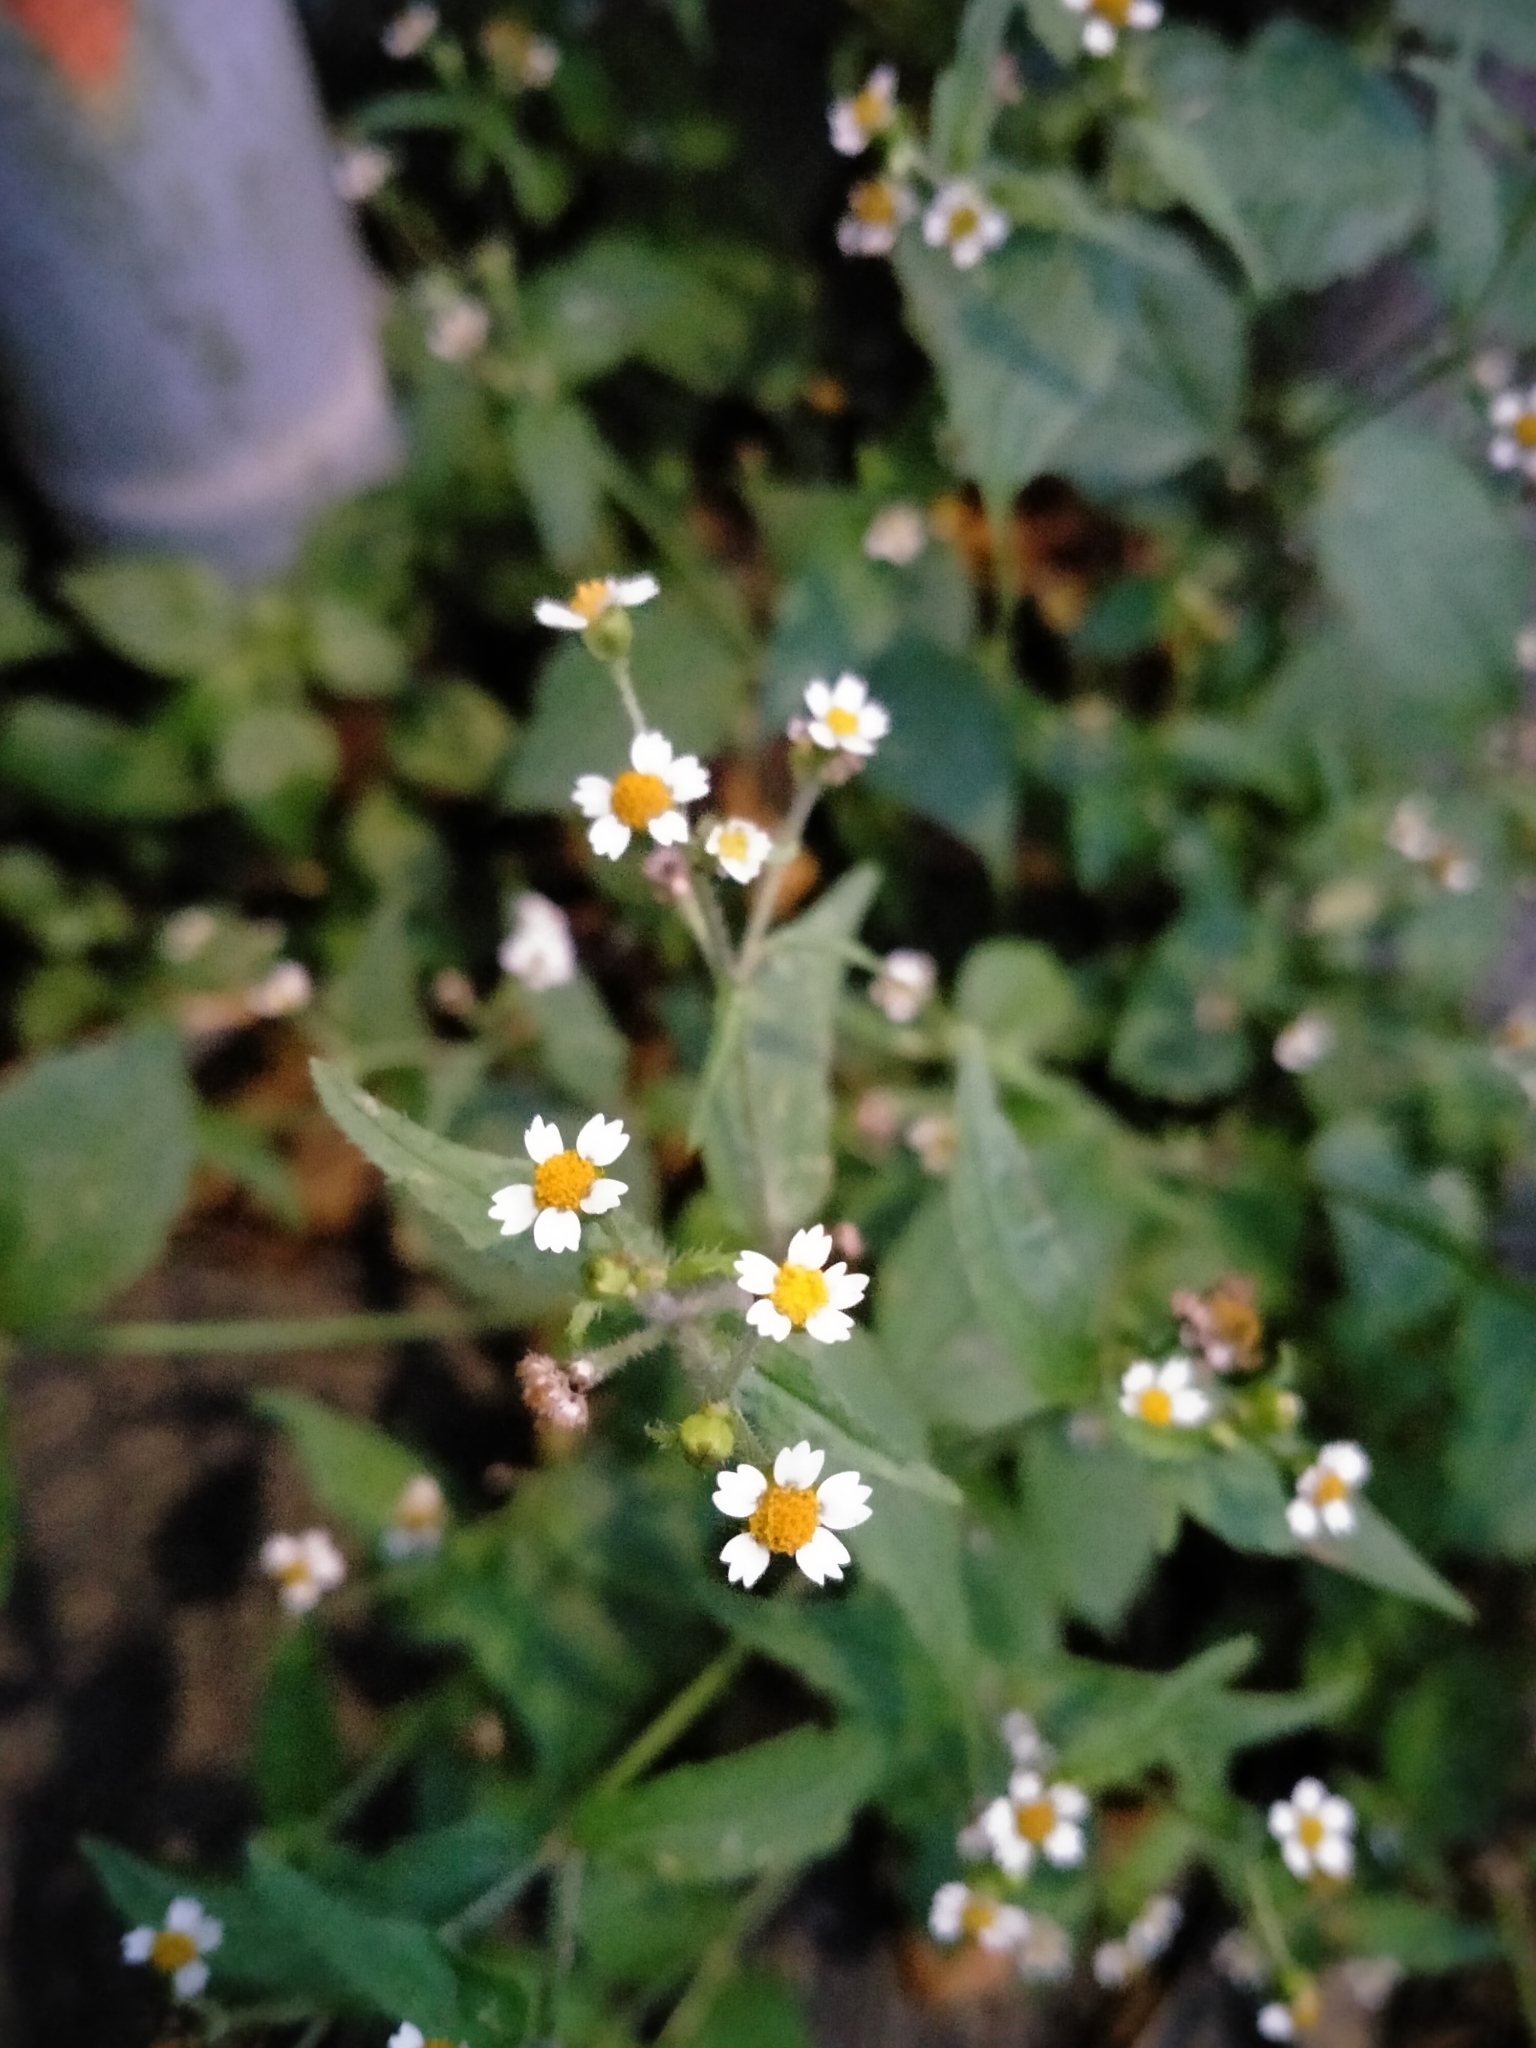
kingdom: Plantae
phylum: Tracheophyta
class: Magnoliopsida
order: Asterales
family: Asteraceae
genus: Galinsoga
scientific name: Galinsoga quadriradiata
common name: Shaggy soldier
